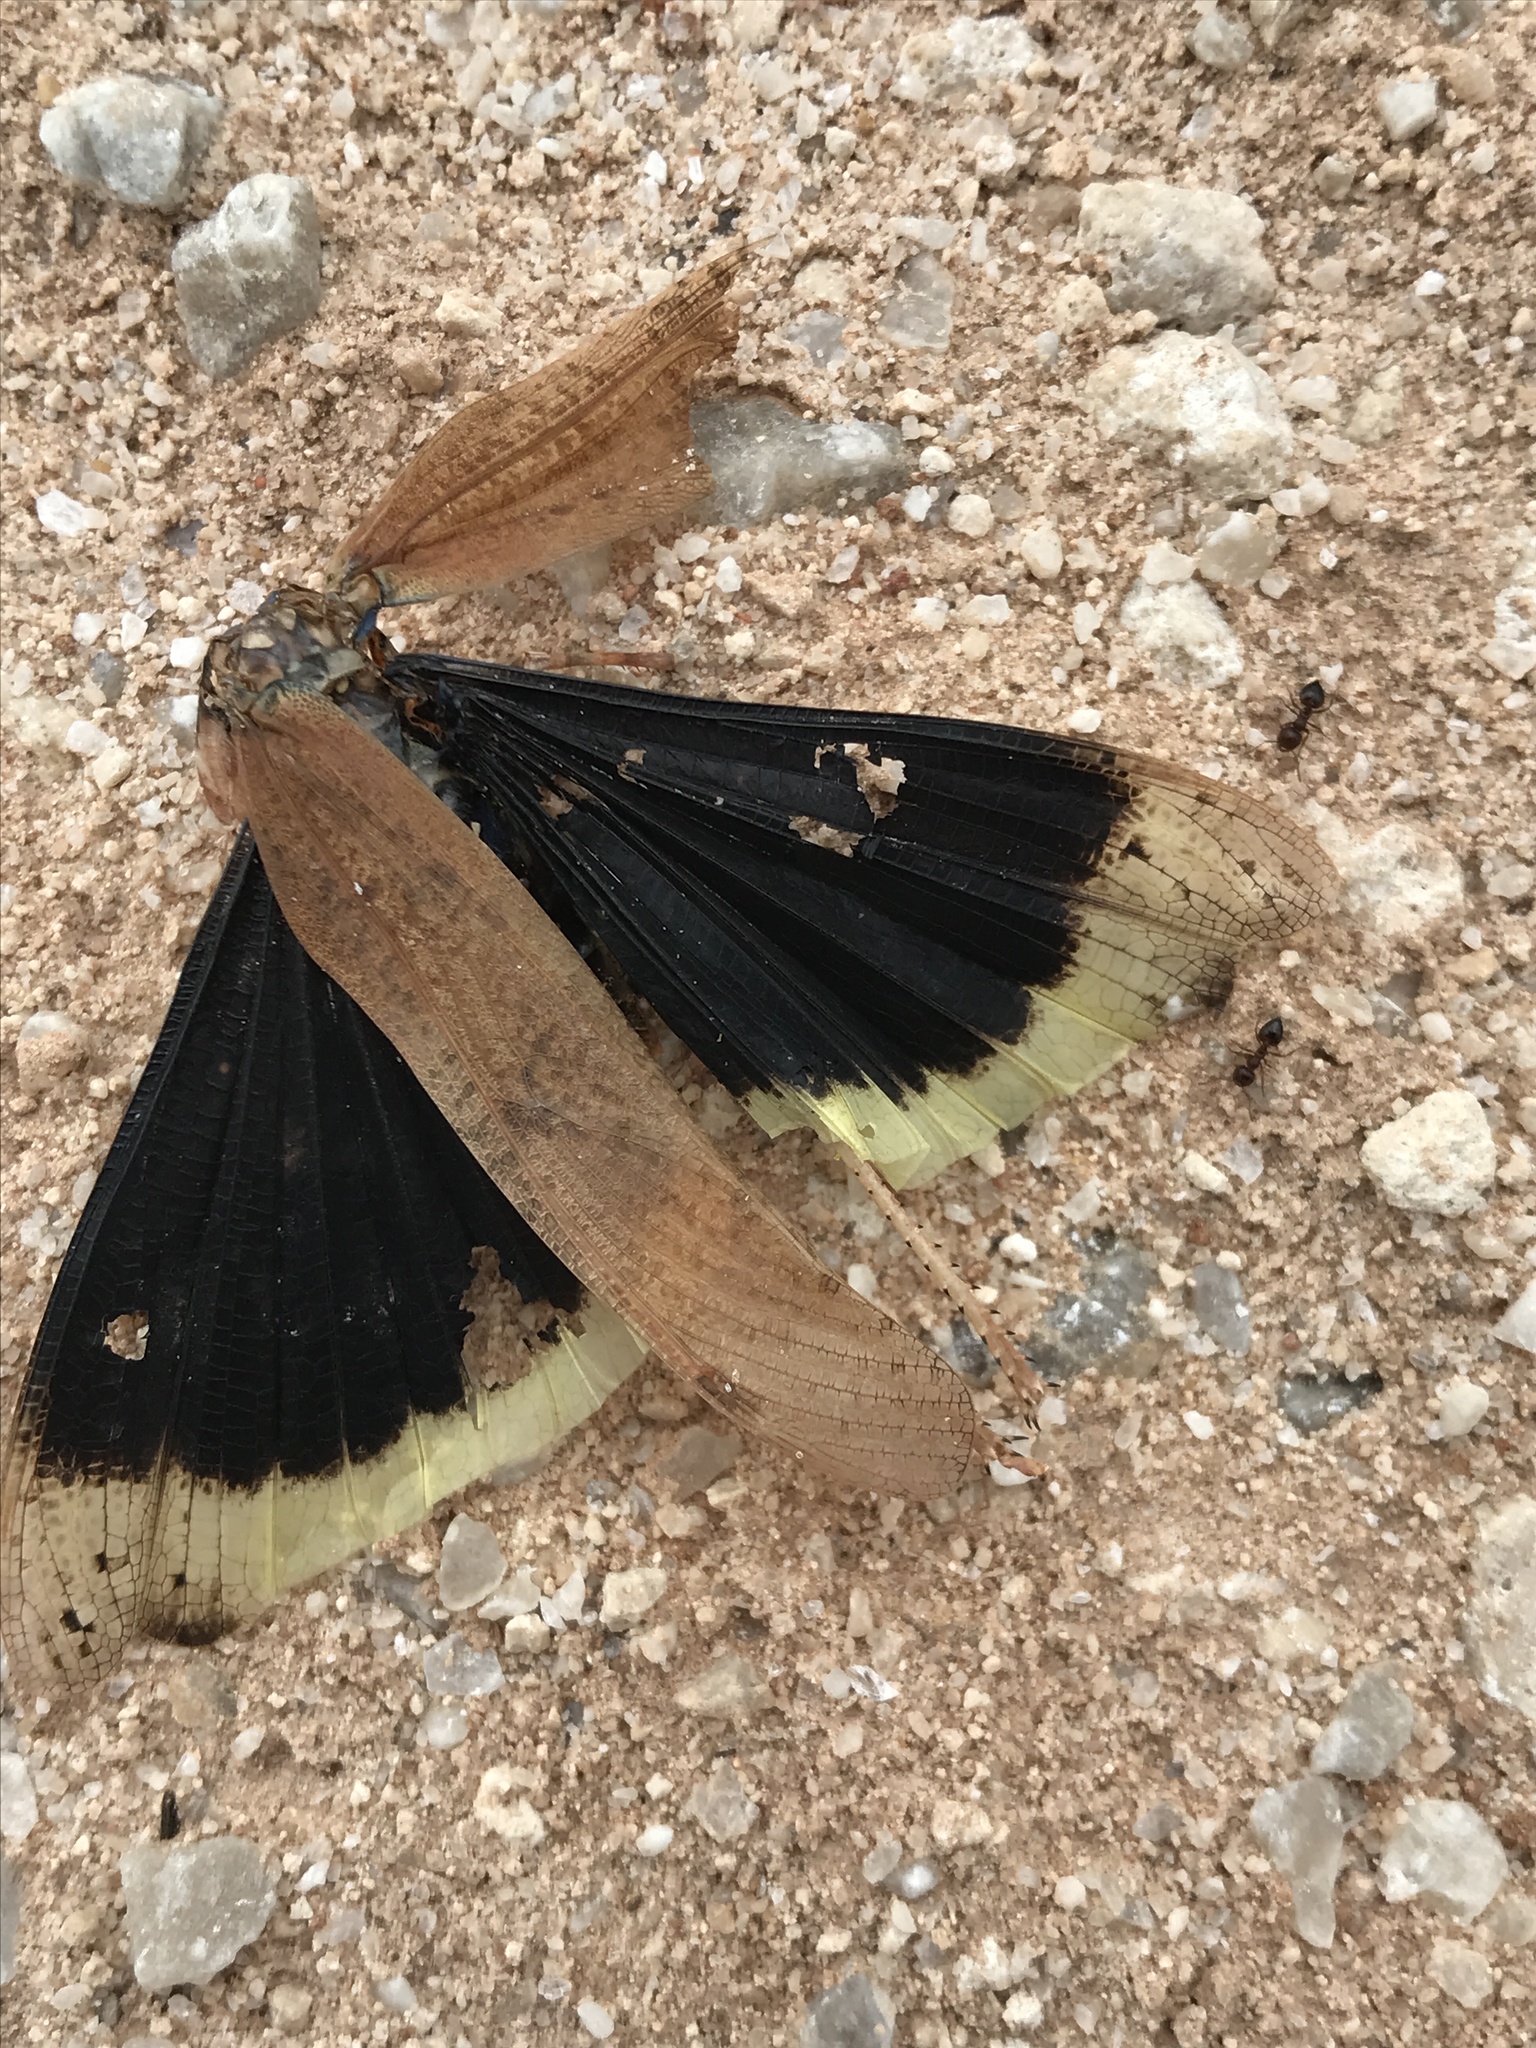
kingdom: Animalia
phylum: Arthropoda
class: Insecta
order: Orthoptera
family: Acrididae
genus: Dissosteira
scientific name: Dissosteira carolina
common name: Carolina grasshopper
